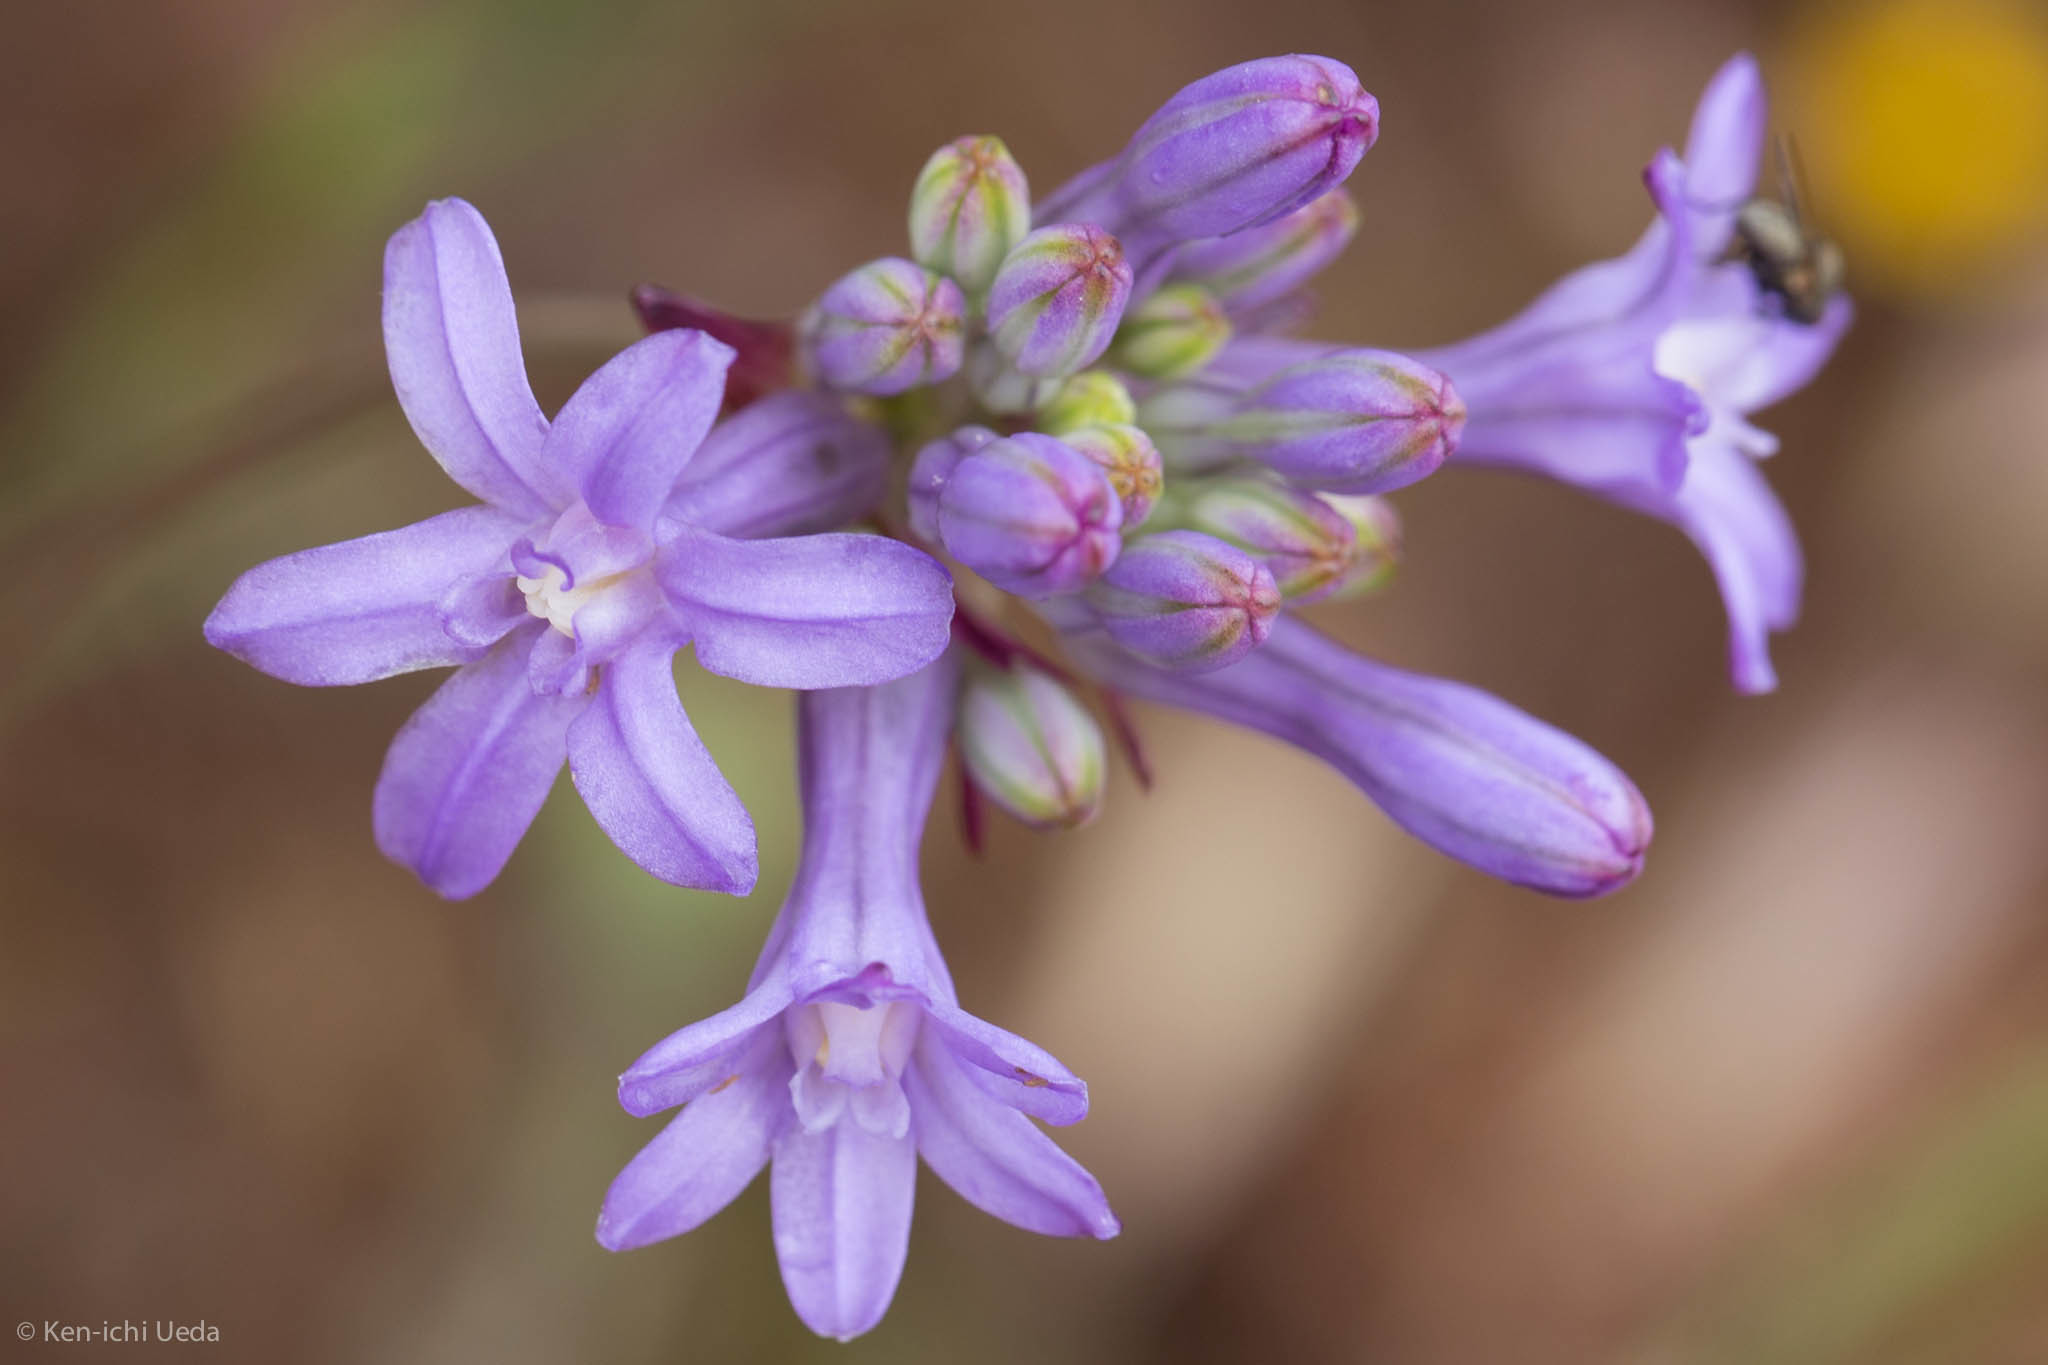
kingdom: Plantae
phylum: Tracheophyta
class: Liliopsida
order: Asparagales
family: Asparagaceae
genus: Dichelostemma
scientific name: Dichelostemma multiflorum
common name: Round-tooth ookow
